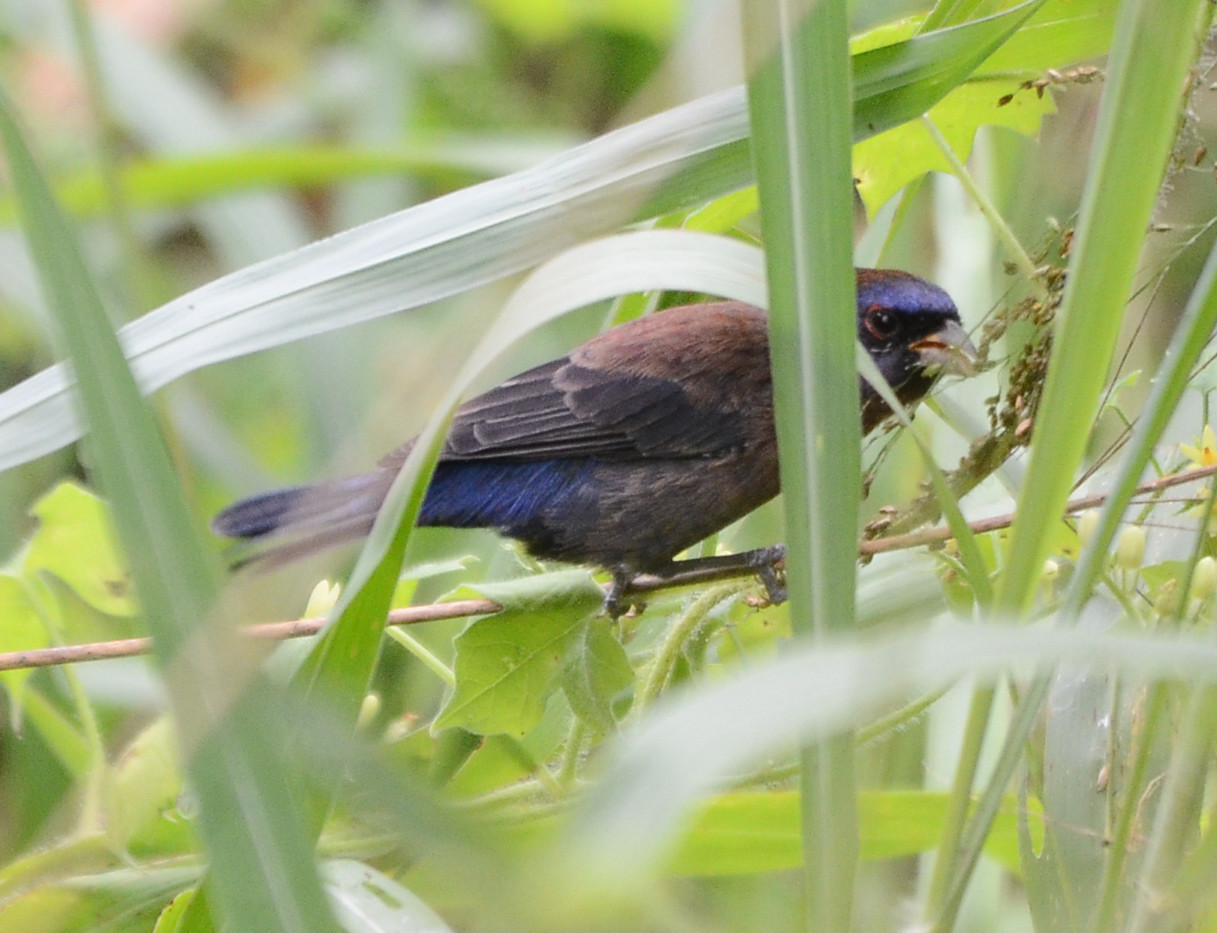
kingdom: Animalia
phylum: Chordata
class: Aves
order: Passeriformes
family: Cardinalidae
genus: Passerina
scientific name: Passerina versicolor
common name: Varied bunting
